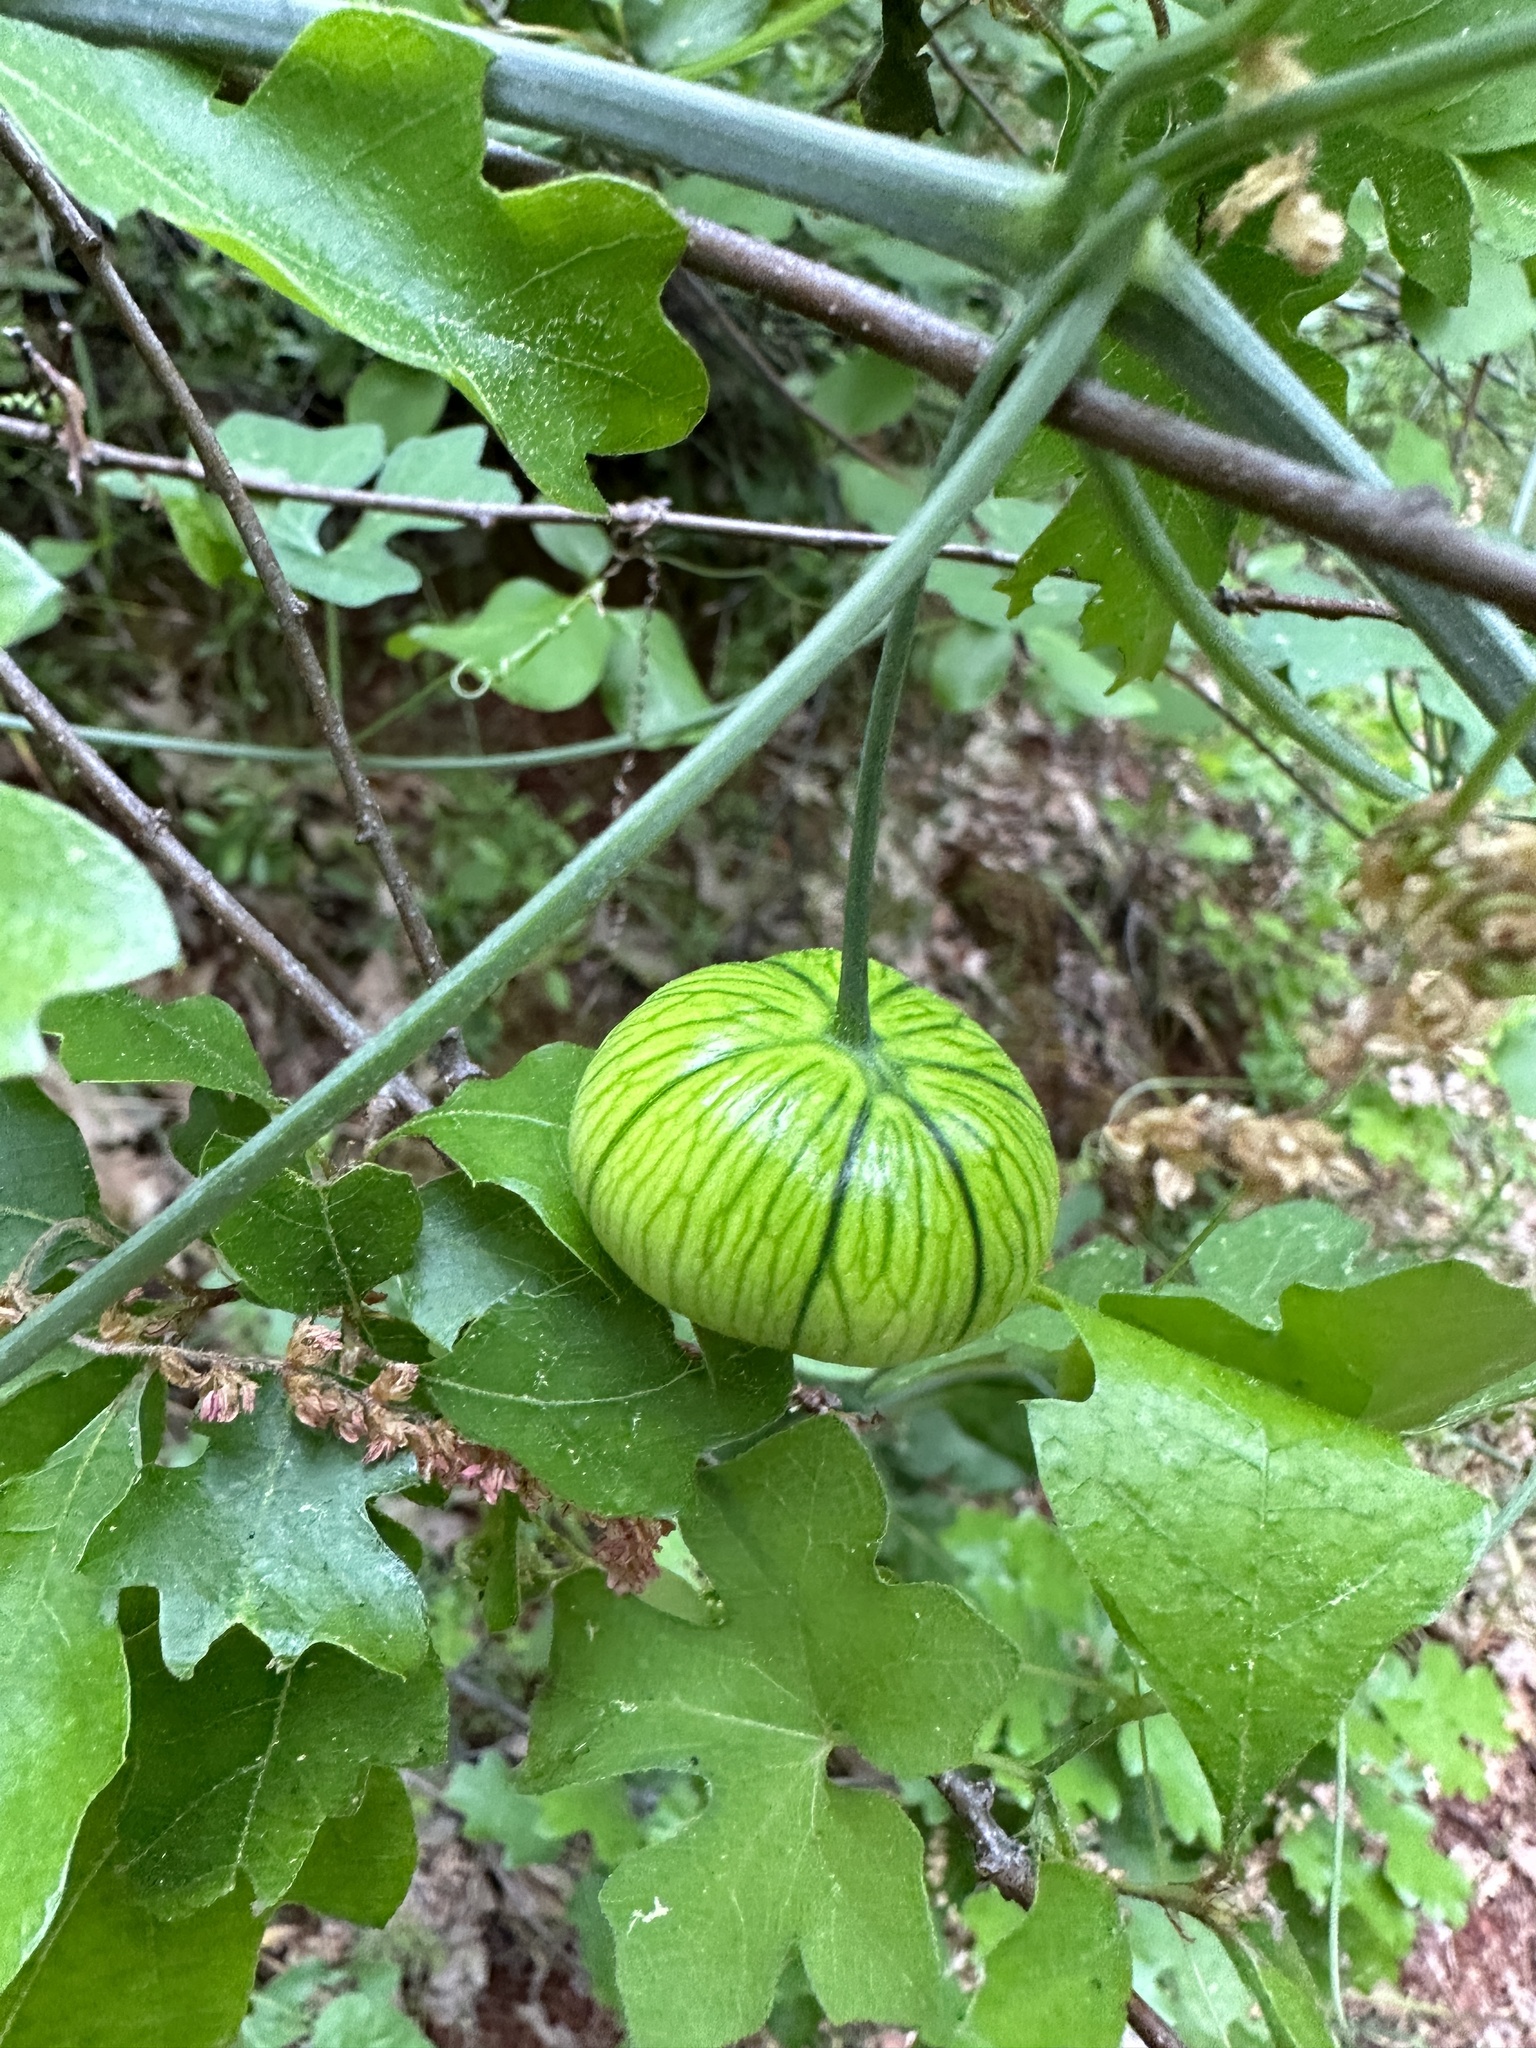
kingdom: Plantae
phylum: Tracheophyta
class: Magnoliopsida
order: Cucurbitales
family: Cucurbitaceae
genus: Marah
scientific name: Marah watsonii
